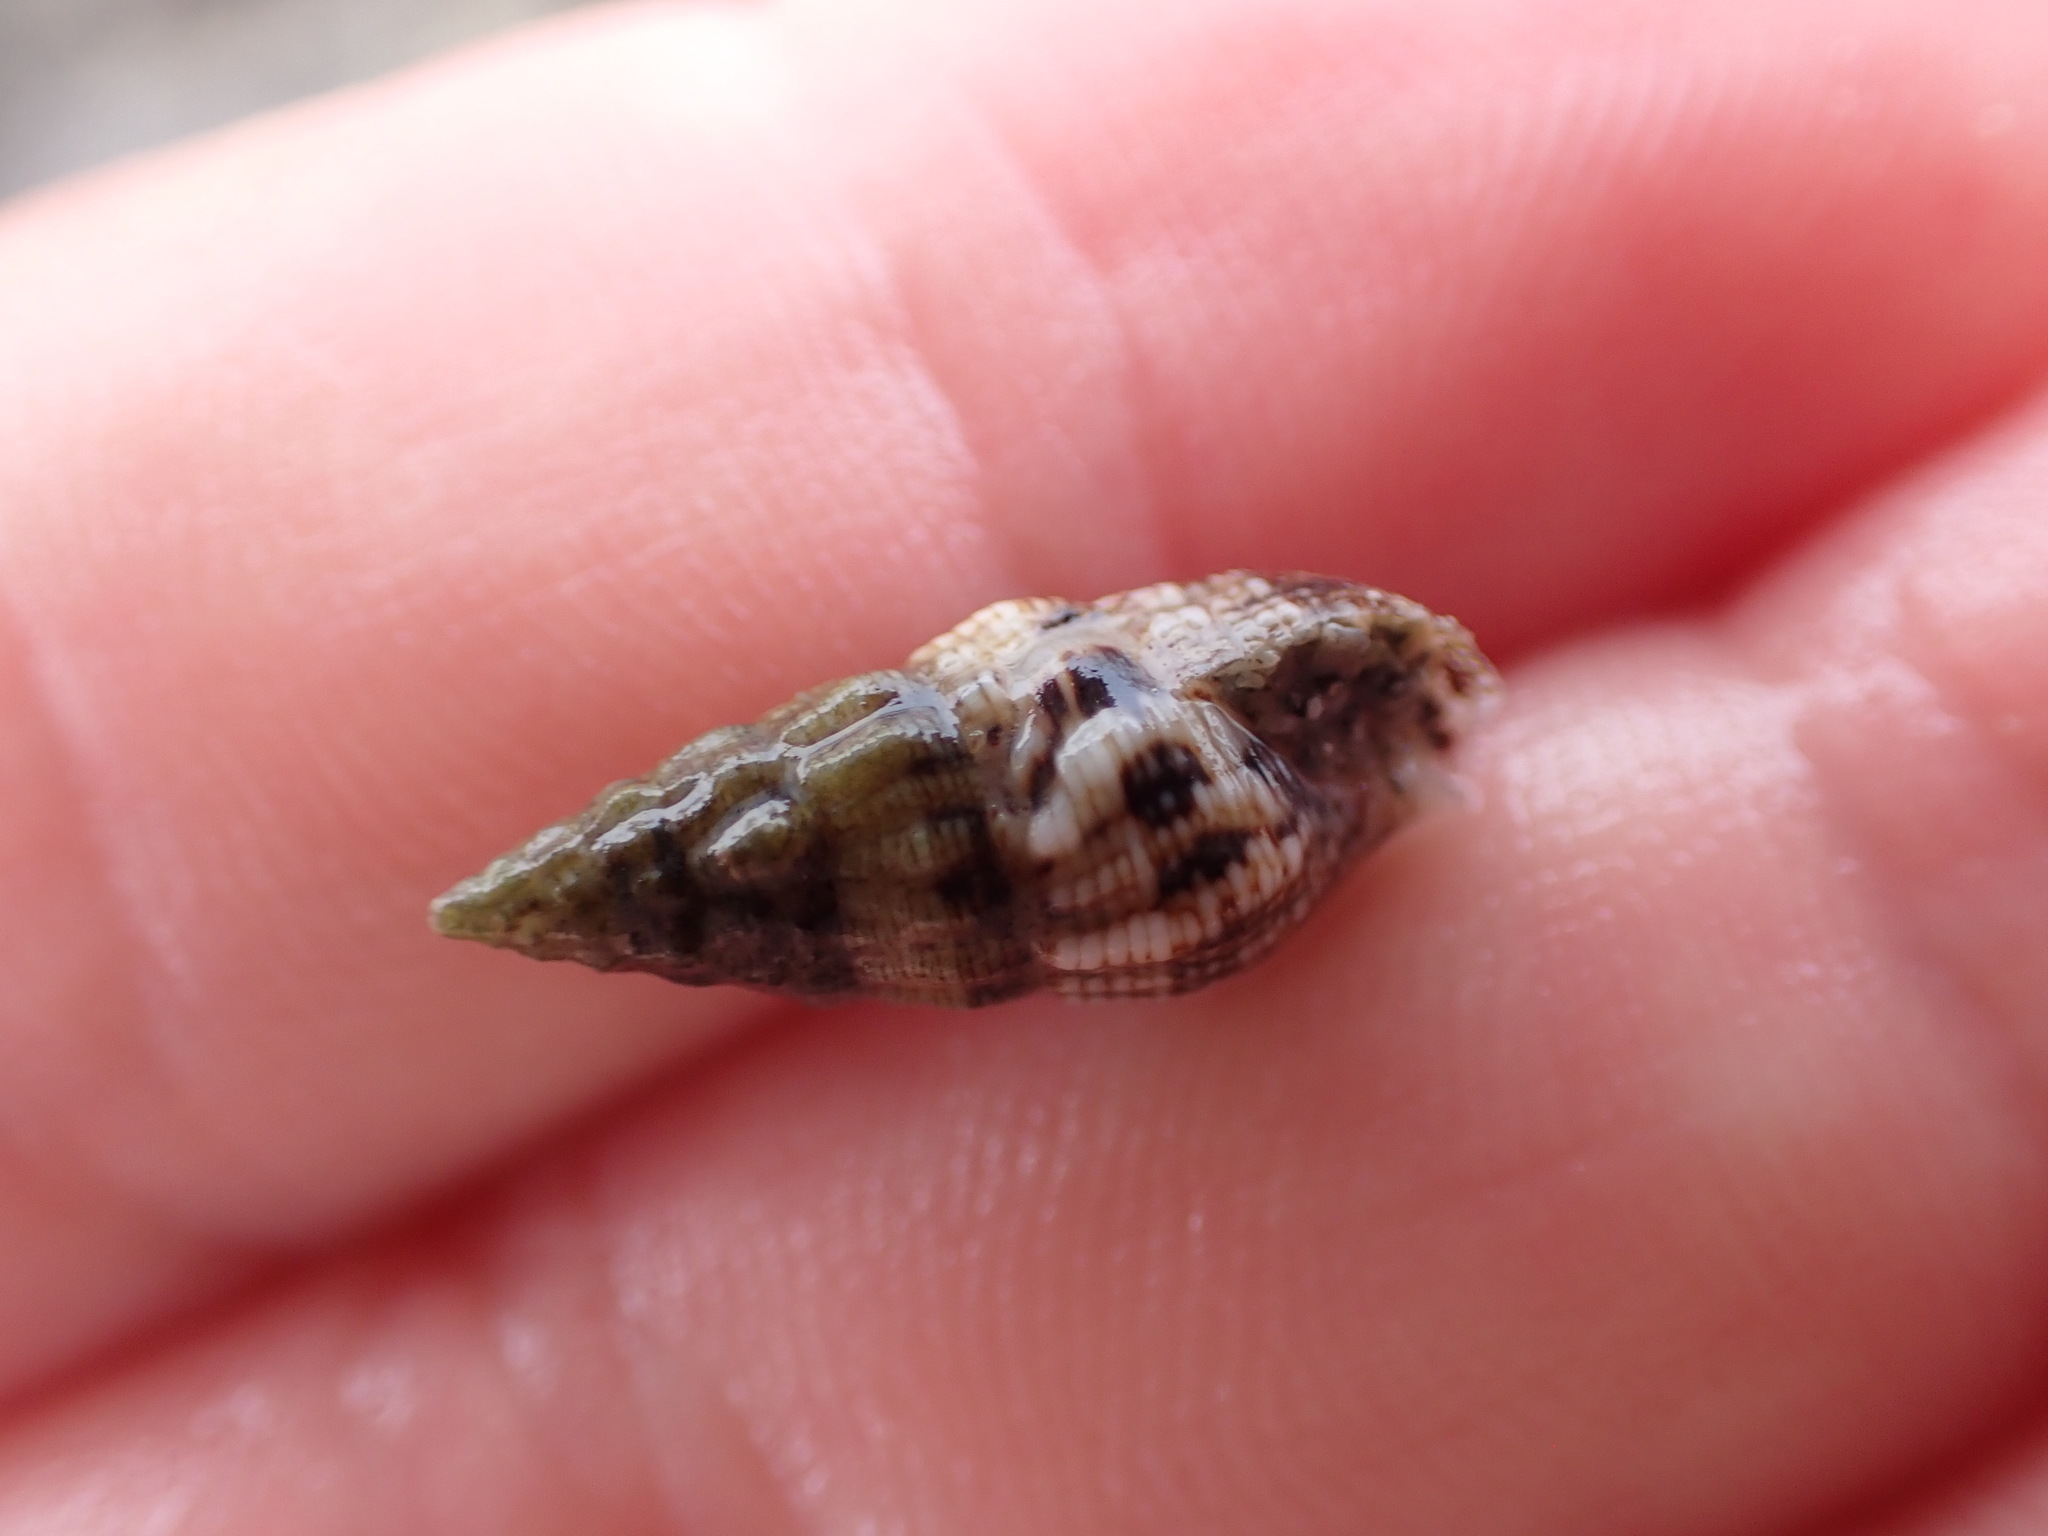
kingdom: Animalia
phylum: Mollusca
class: Gastropoda
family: Cerithiidae
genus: Cerithium
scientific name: Cerithium vulgatum
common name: European cerith
